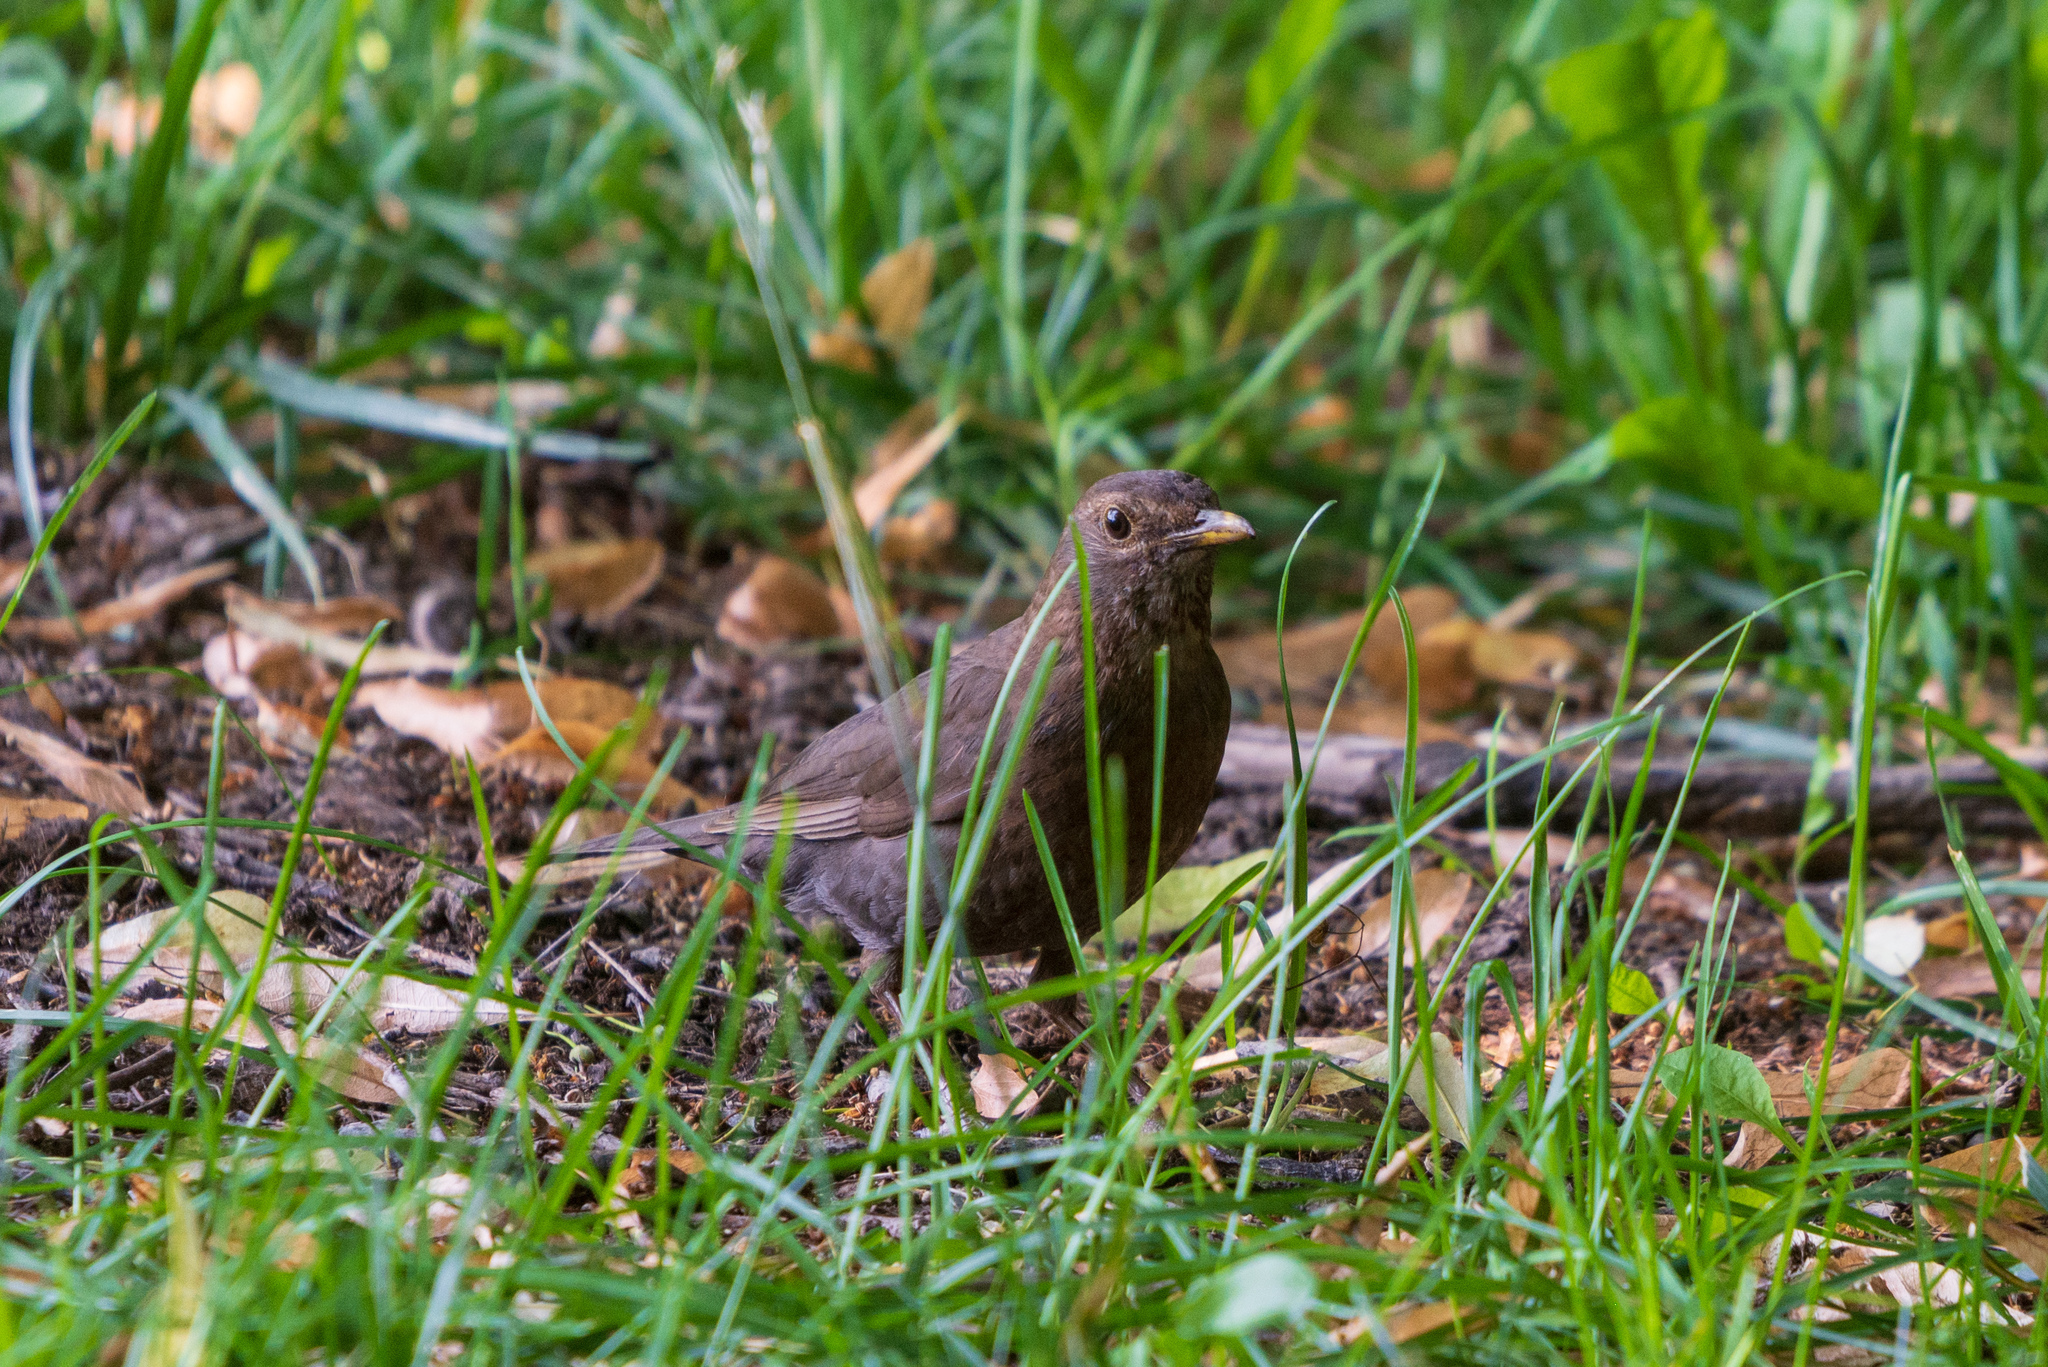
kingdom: Animalia
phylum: Chordata
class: Aves
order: Passeriformes
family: Turdidae
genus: Turdus
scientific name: Turdus merula
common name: Common blackbird
